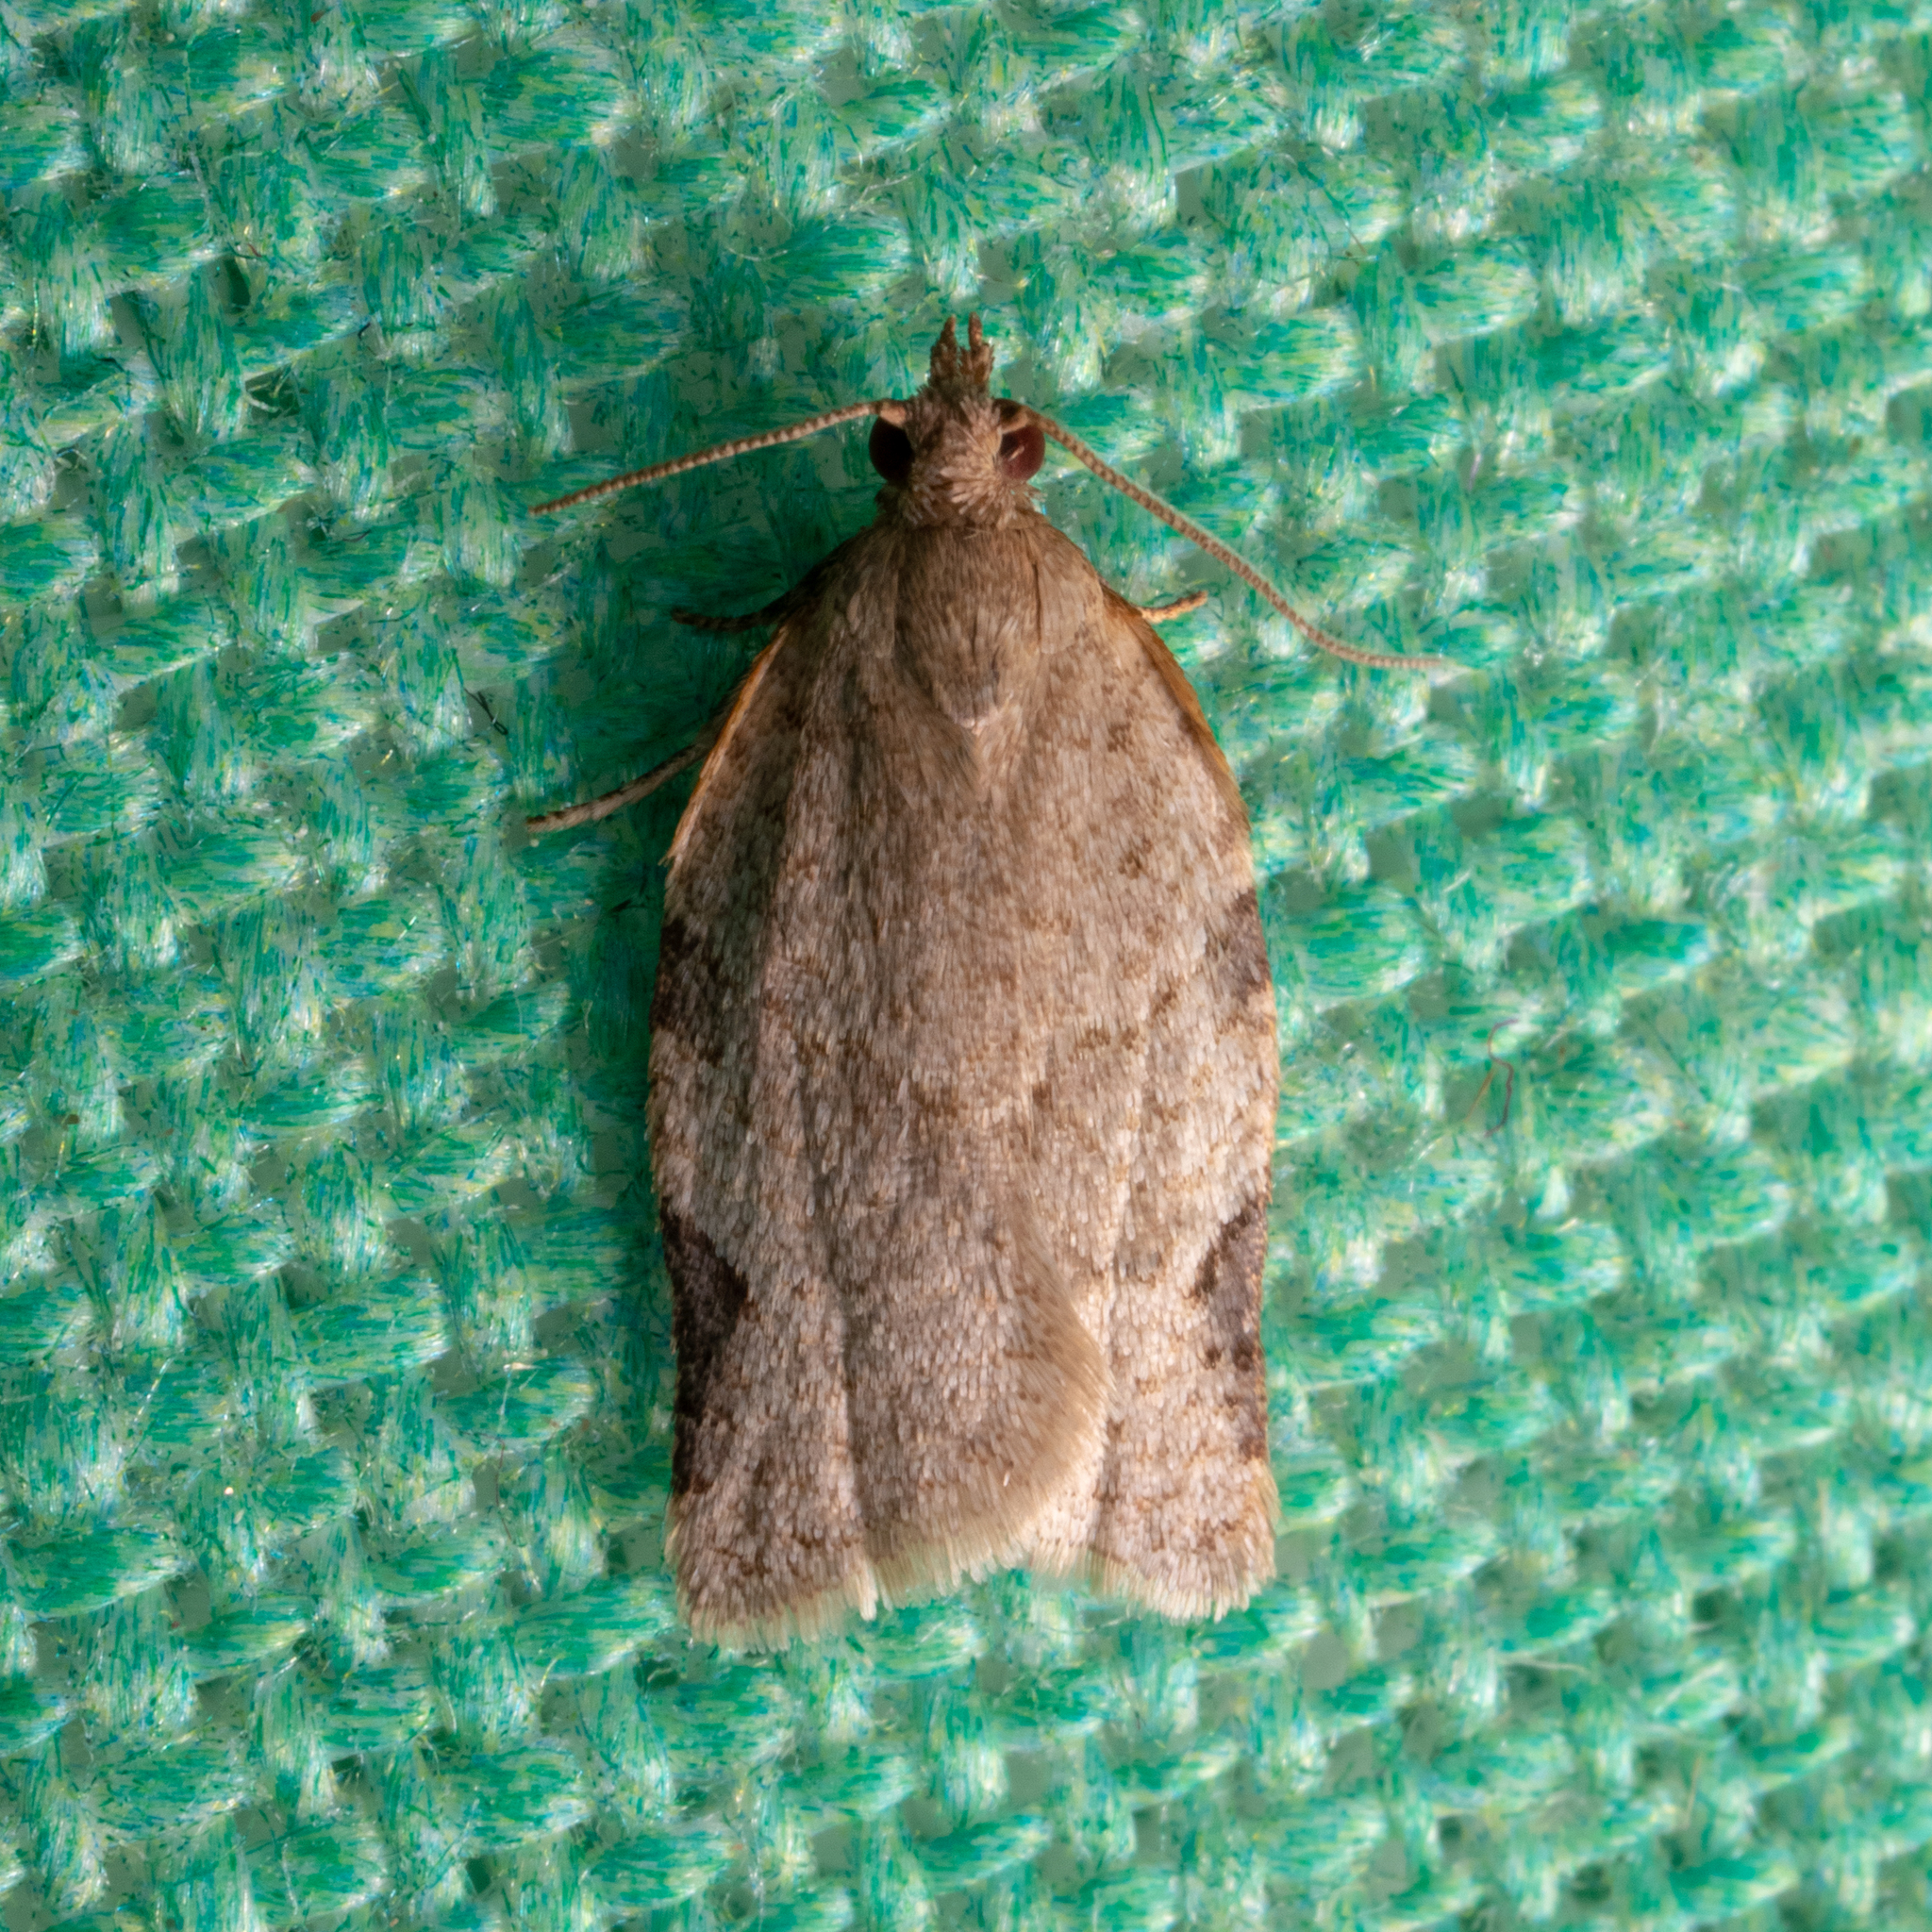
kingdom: Animalia
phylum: Arthropoda
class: Insecta
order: Lepidoptera
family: Tortricidae
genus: Clepsis
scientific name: Clepsis peritana
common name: Garden tortrix
